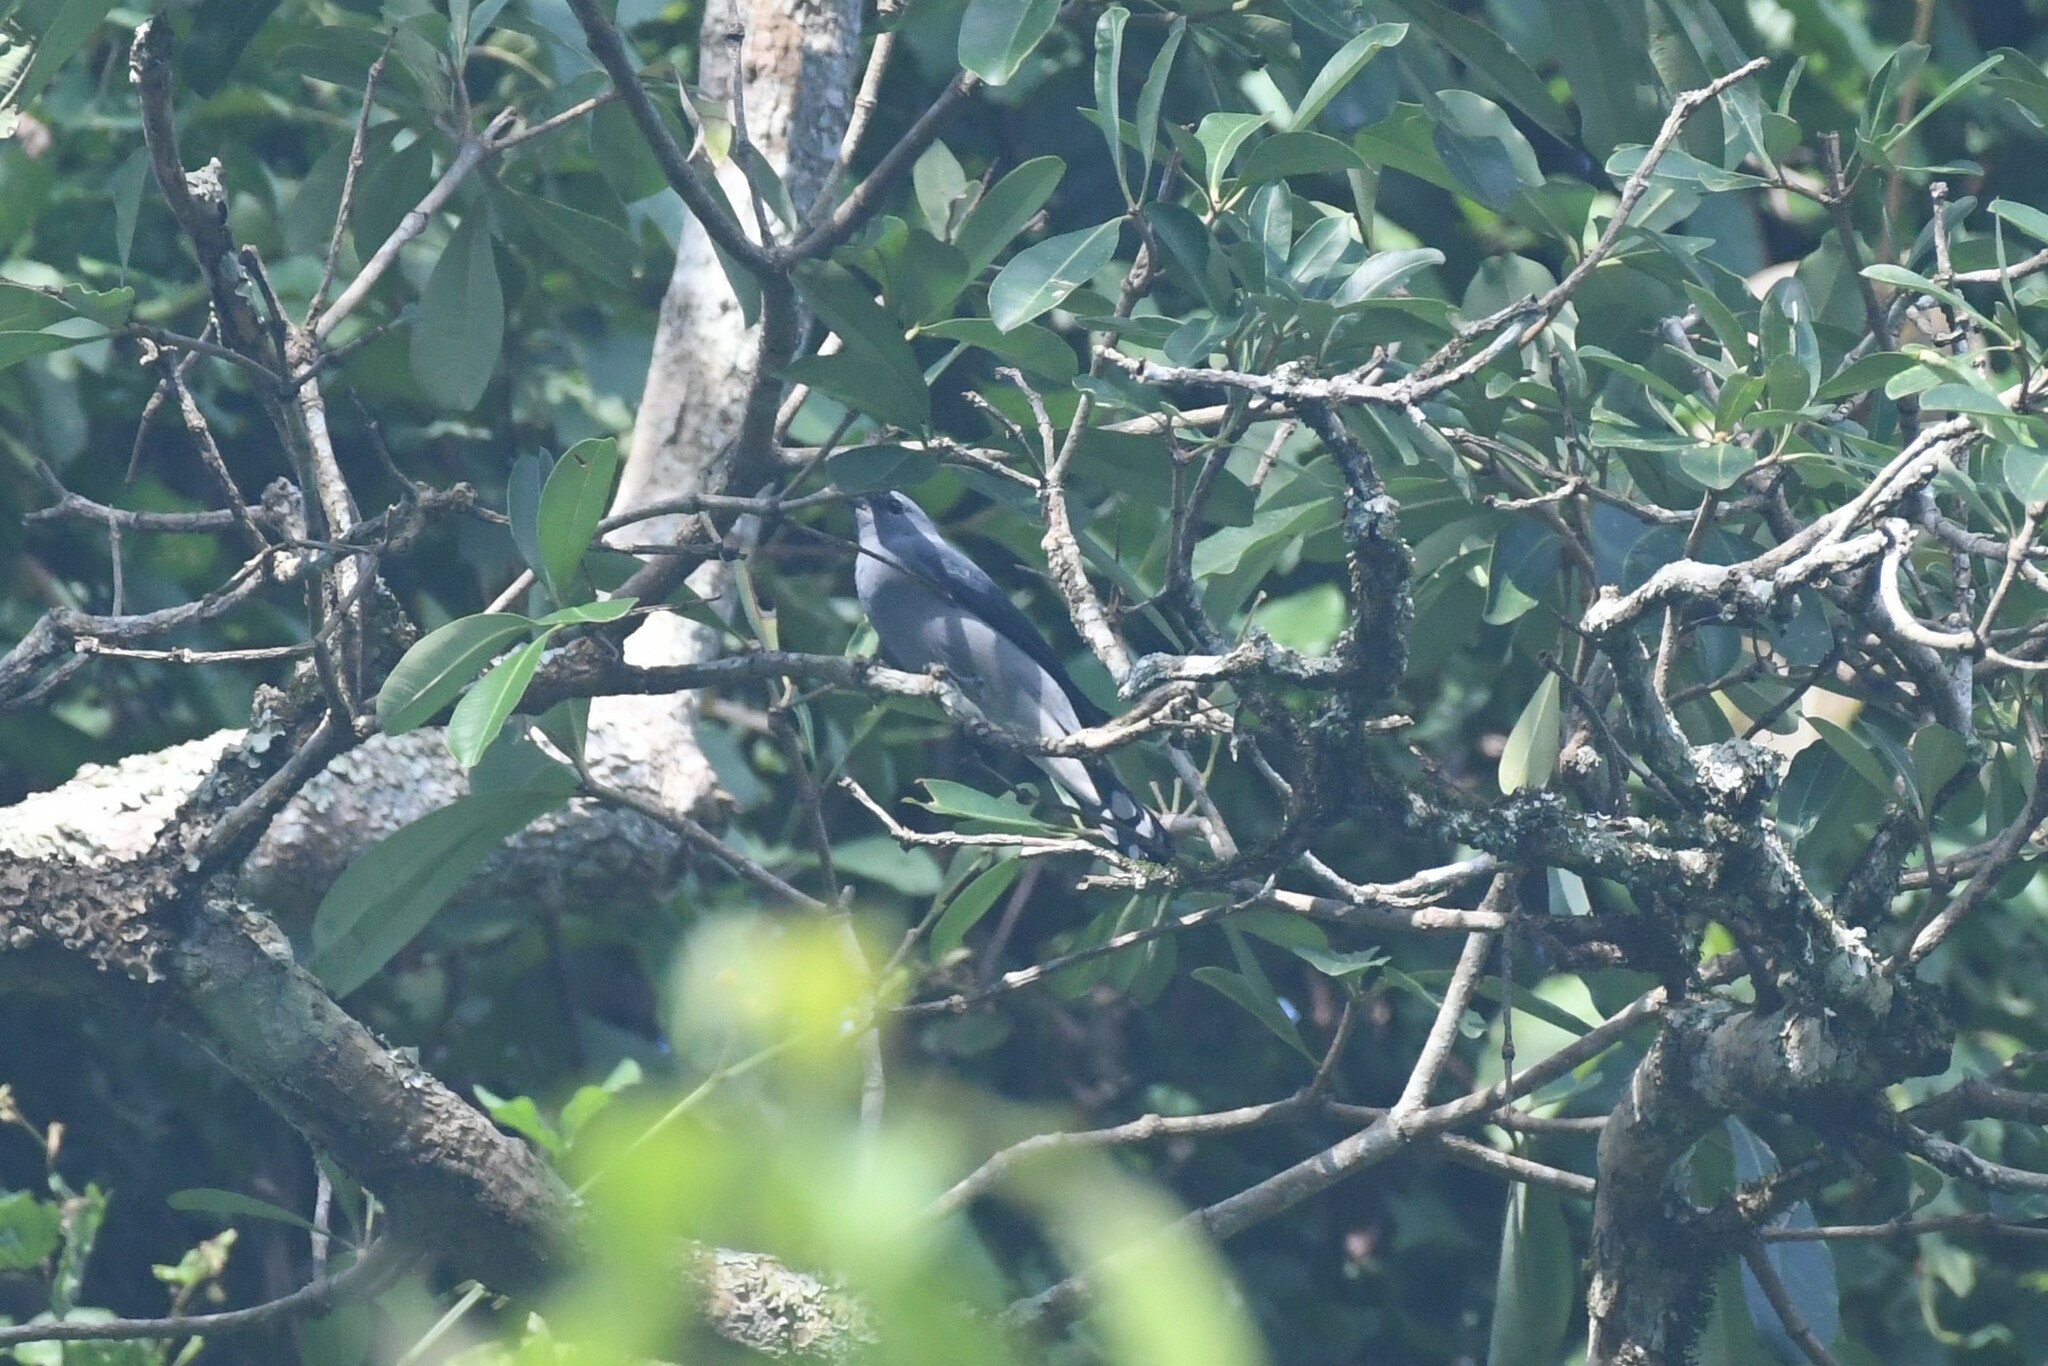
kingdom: Animalia
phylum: Chordata
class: Aves
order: Passeriformes
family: Campephagidae
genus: Coracina
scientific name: Coracina melaschistos
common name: Black-winged cuckooshrike
